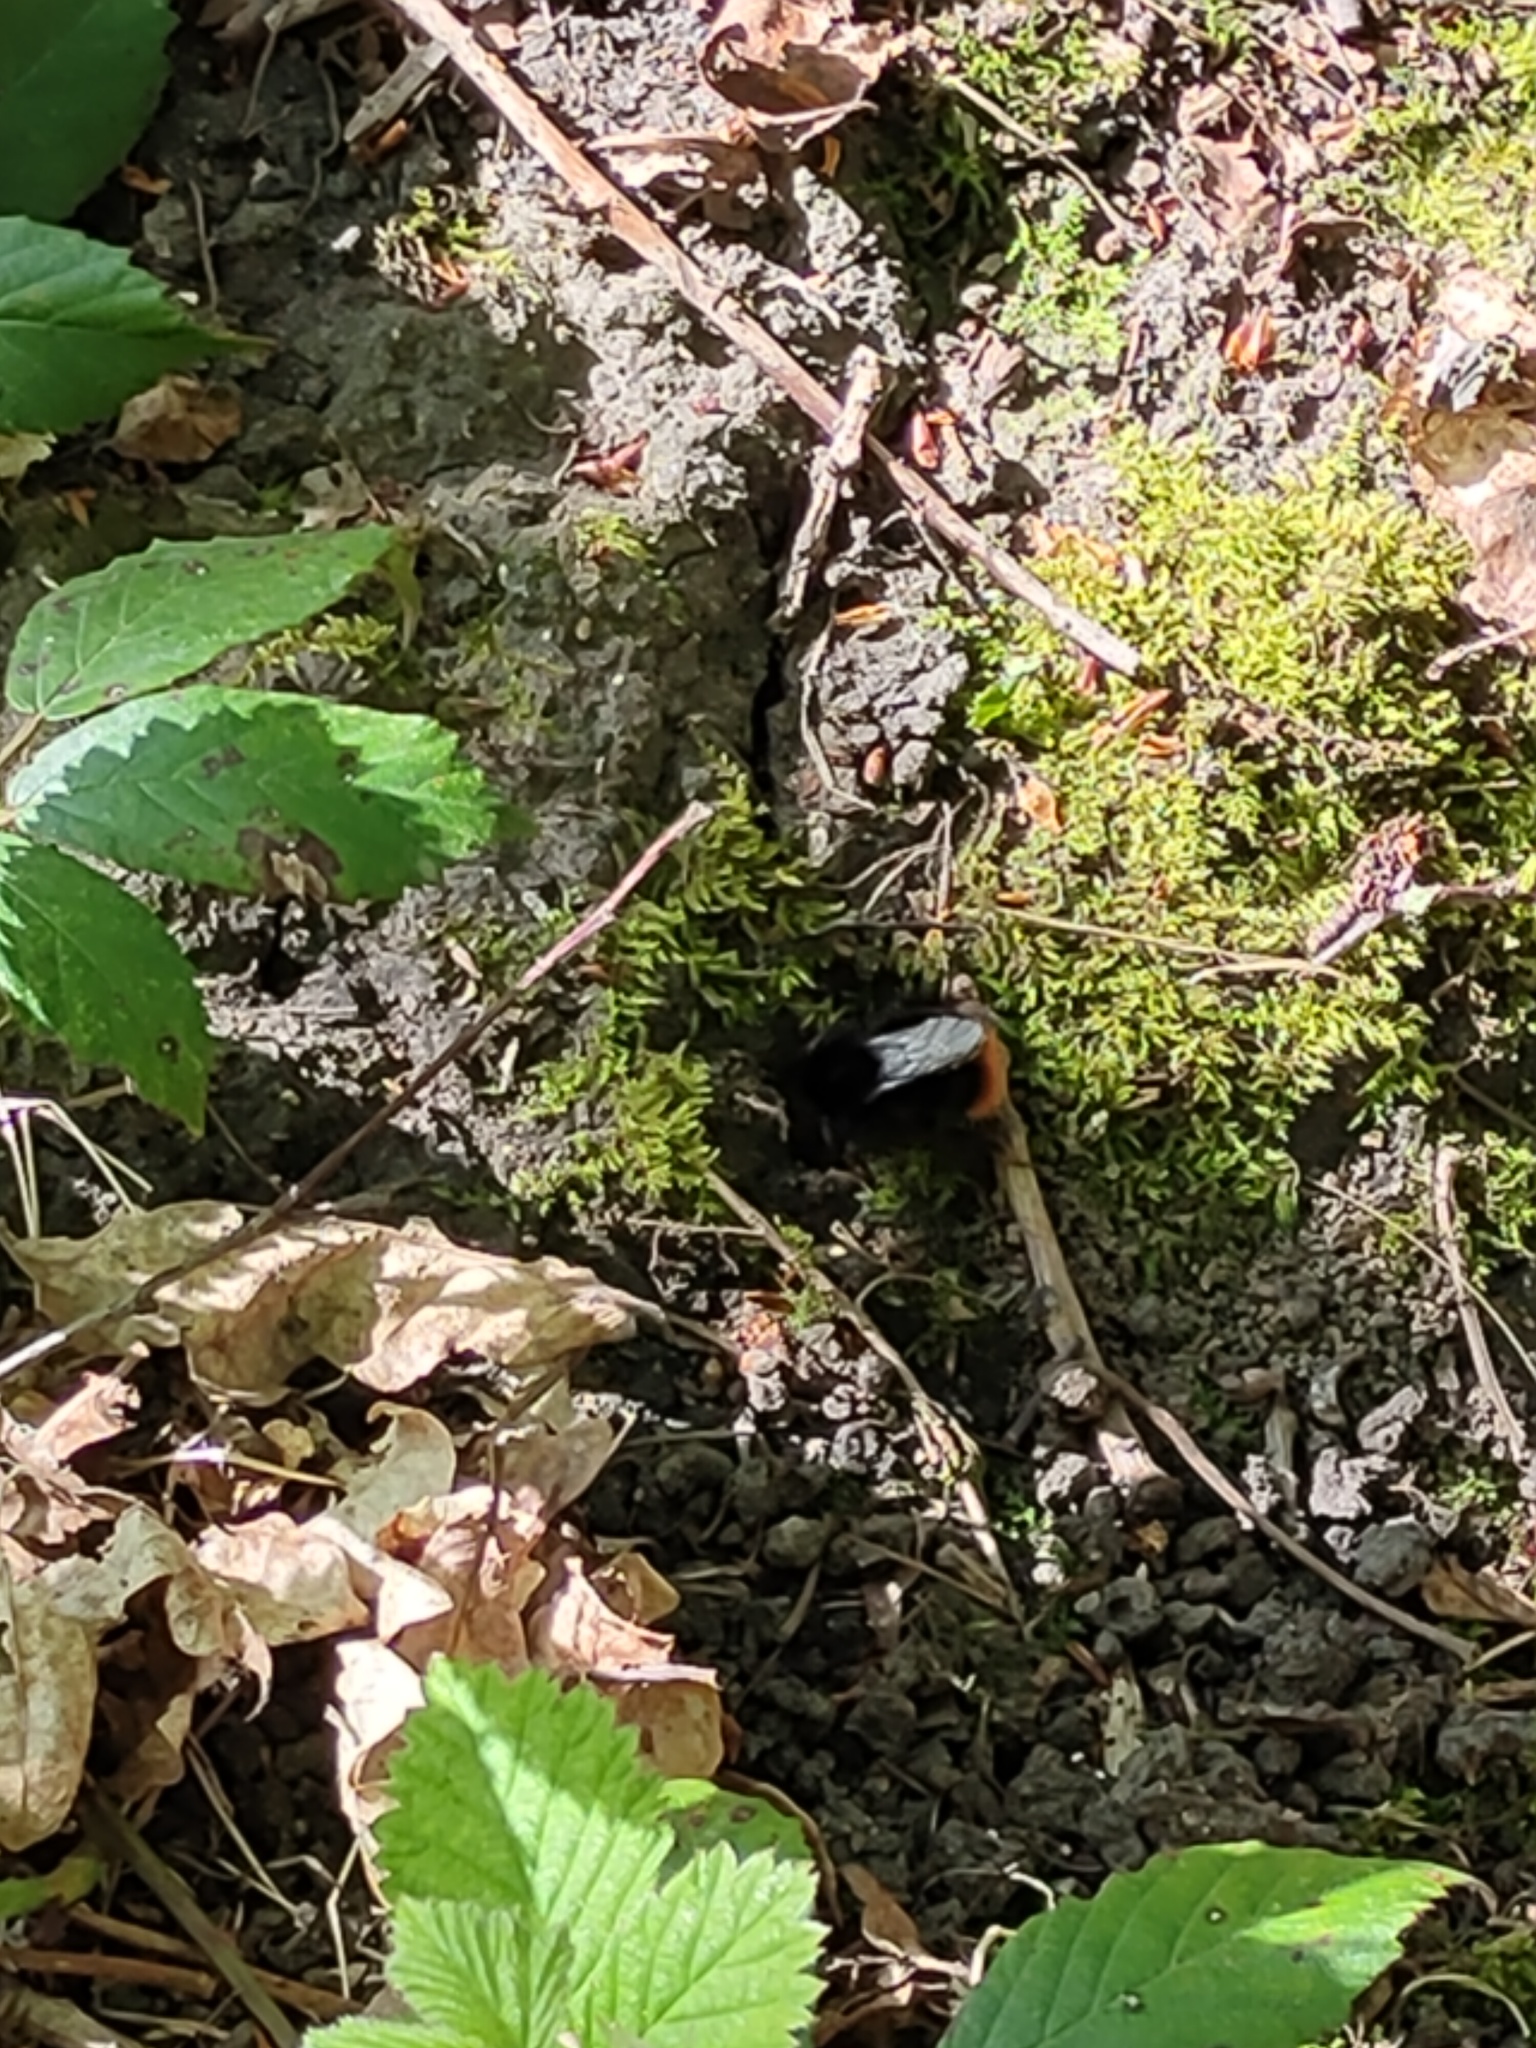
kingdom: Animalia
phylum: Arthropoda
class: Insecta
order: Hymenoptera
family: Apidae
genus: Bombus
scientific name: Bombus lapidarius
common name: Large red-tailed humble-bee
